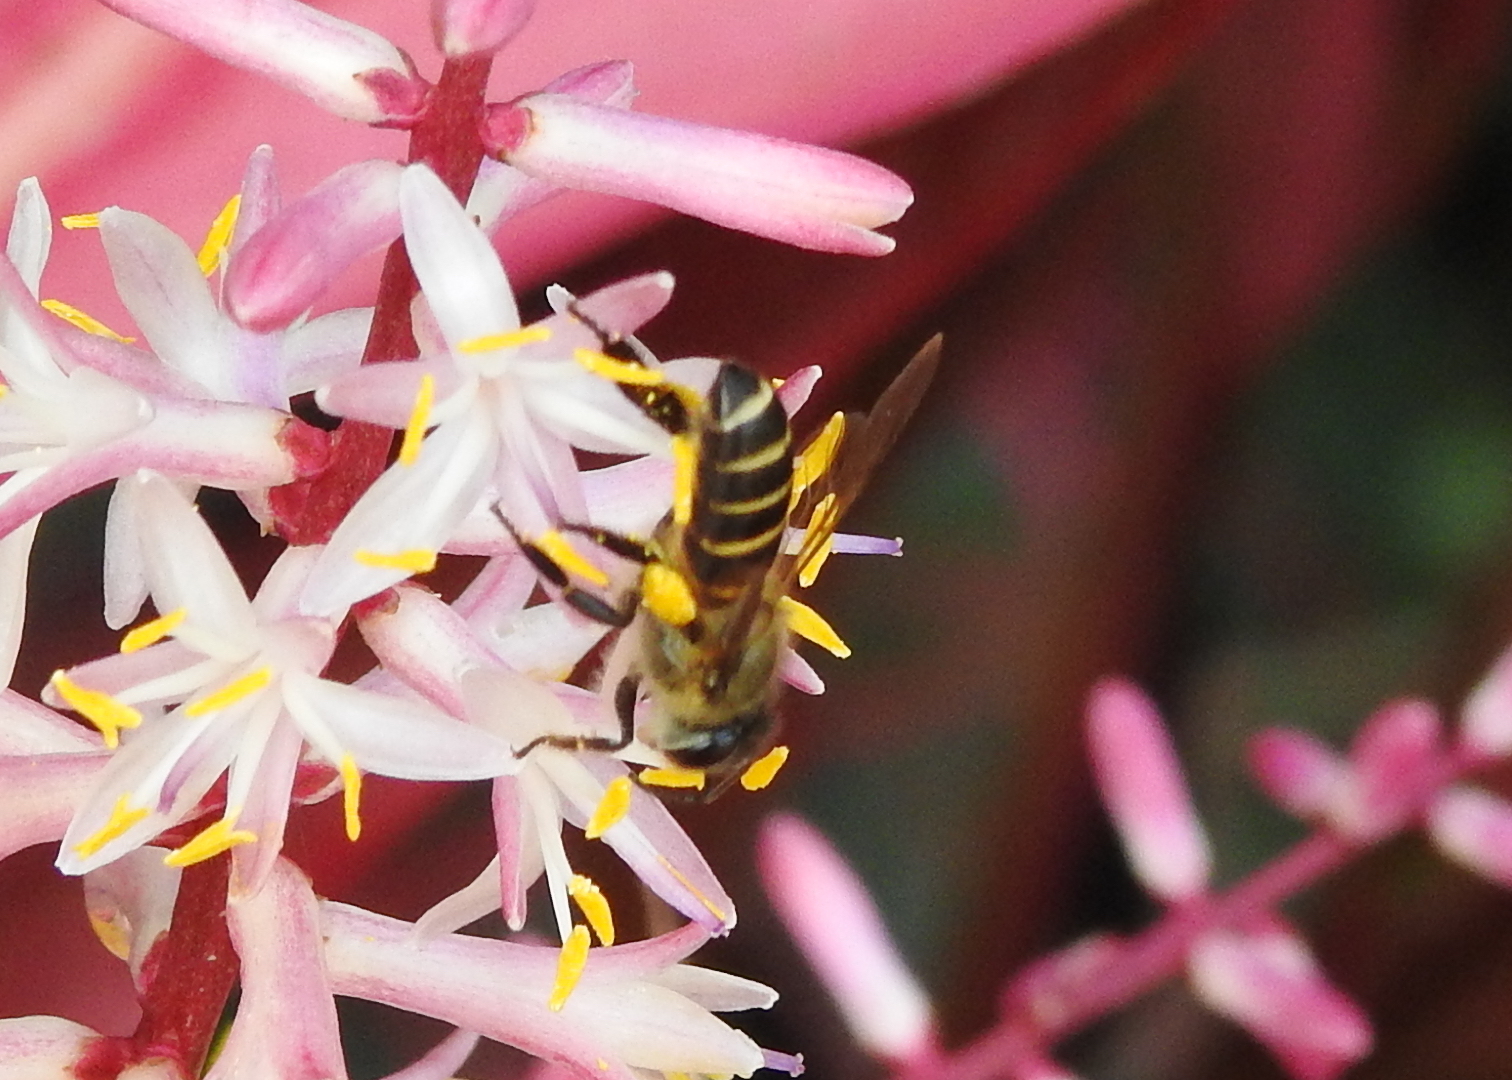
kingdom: Animalia
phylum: Arthropoda
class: Insecta
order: Hymenoptera
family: Apidae
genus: Apis
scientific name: Apis cerana
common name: Honey bee
